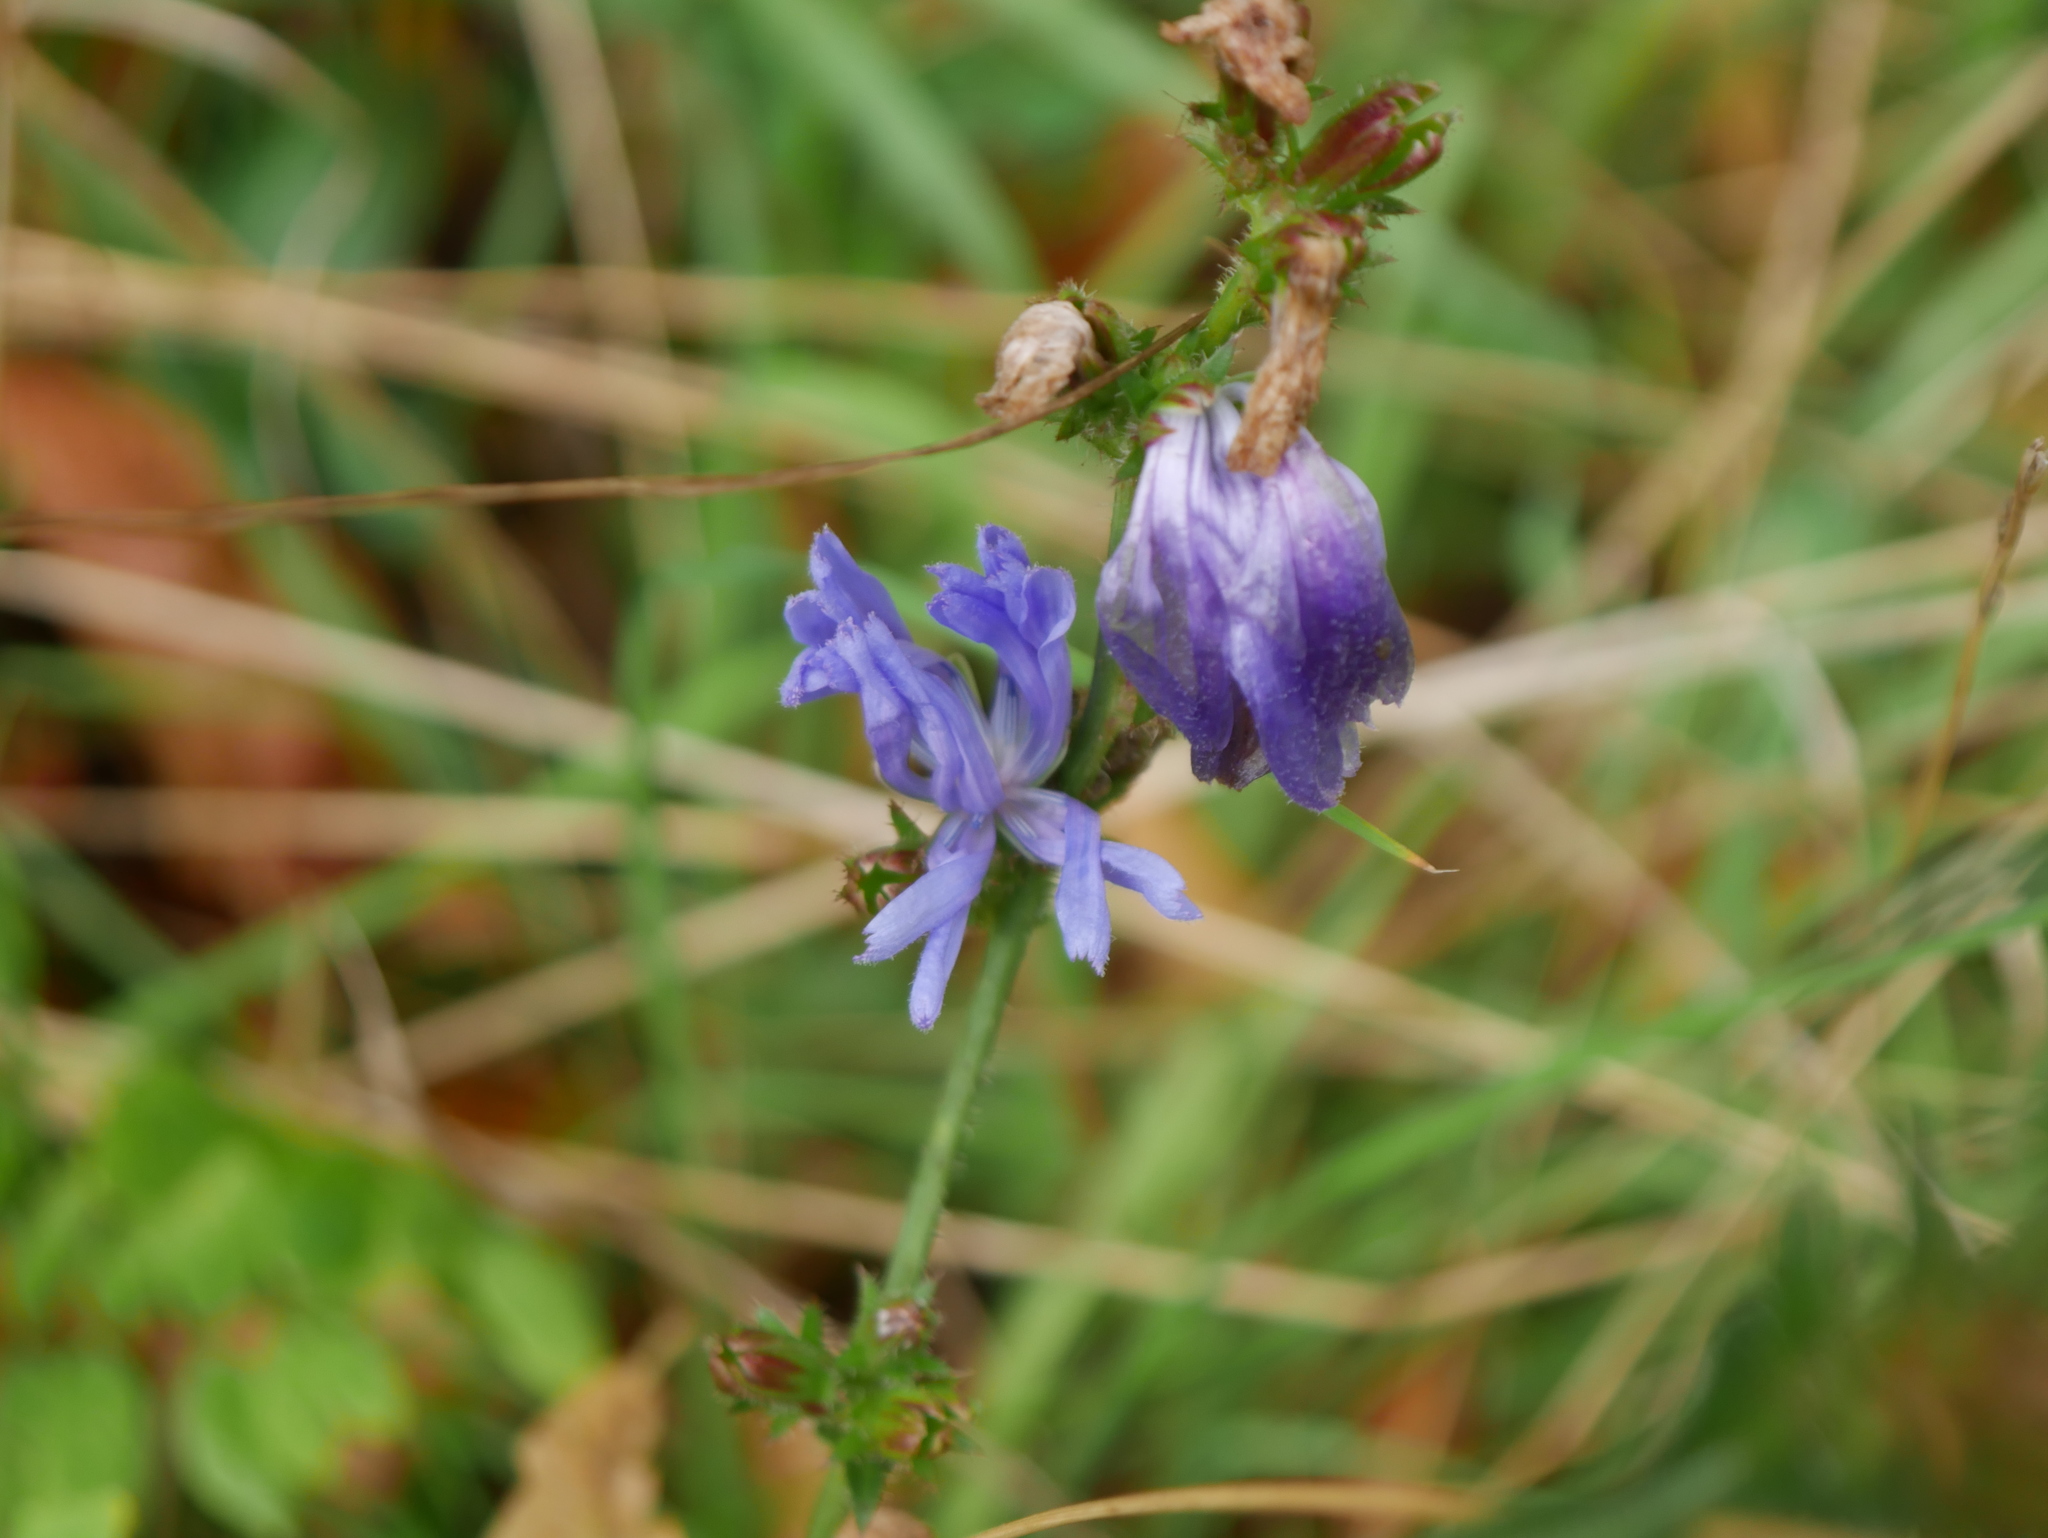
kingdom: Plantae
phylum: Tracheophyta
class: Magnoliopsida
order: Asterales
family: Asteraceae
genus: Cichorium
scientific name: Cichorium intybus
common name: Chicory
